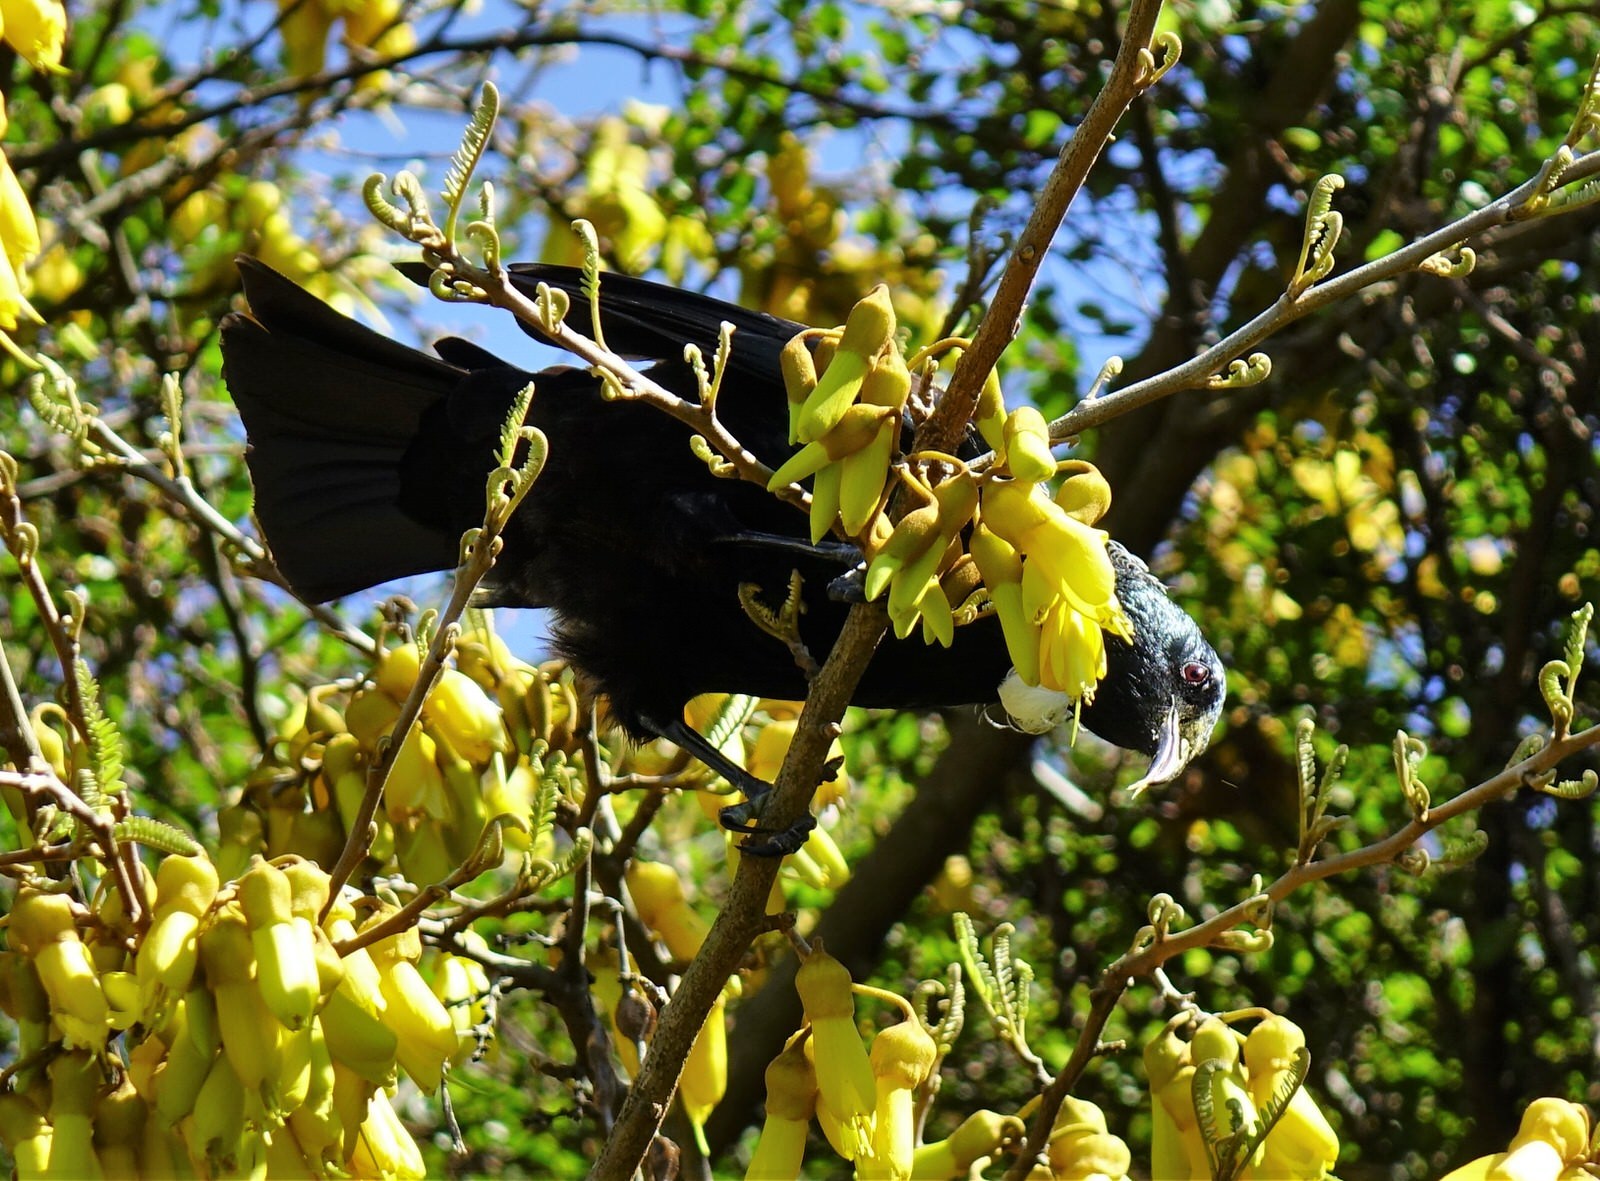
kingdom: Animalia
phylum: Chordata
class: Aves
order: Passeriformes
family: Meliphagidae
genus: Prosthemadera
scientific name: Prosthemadera novaeseelandiae
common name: Tui
